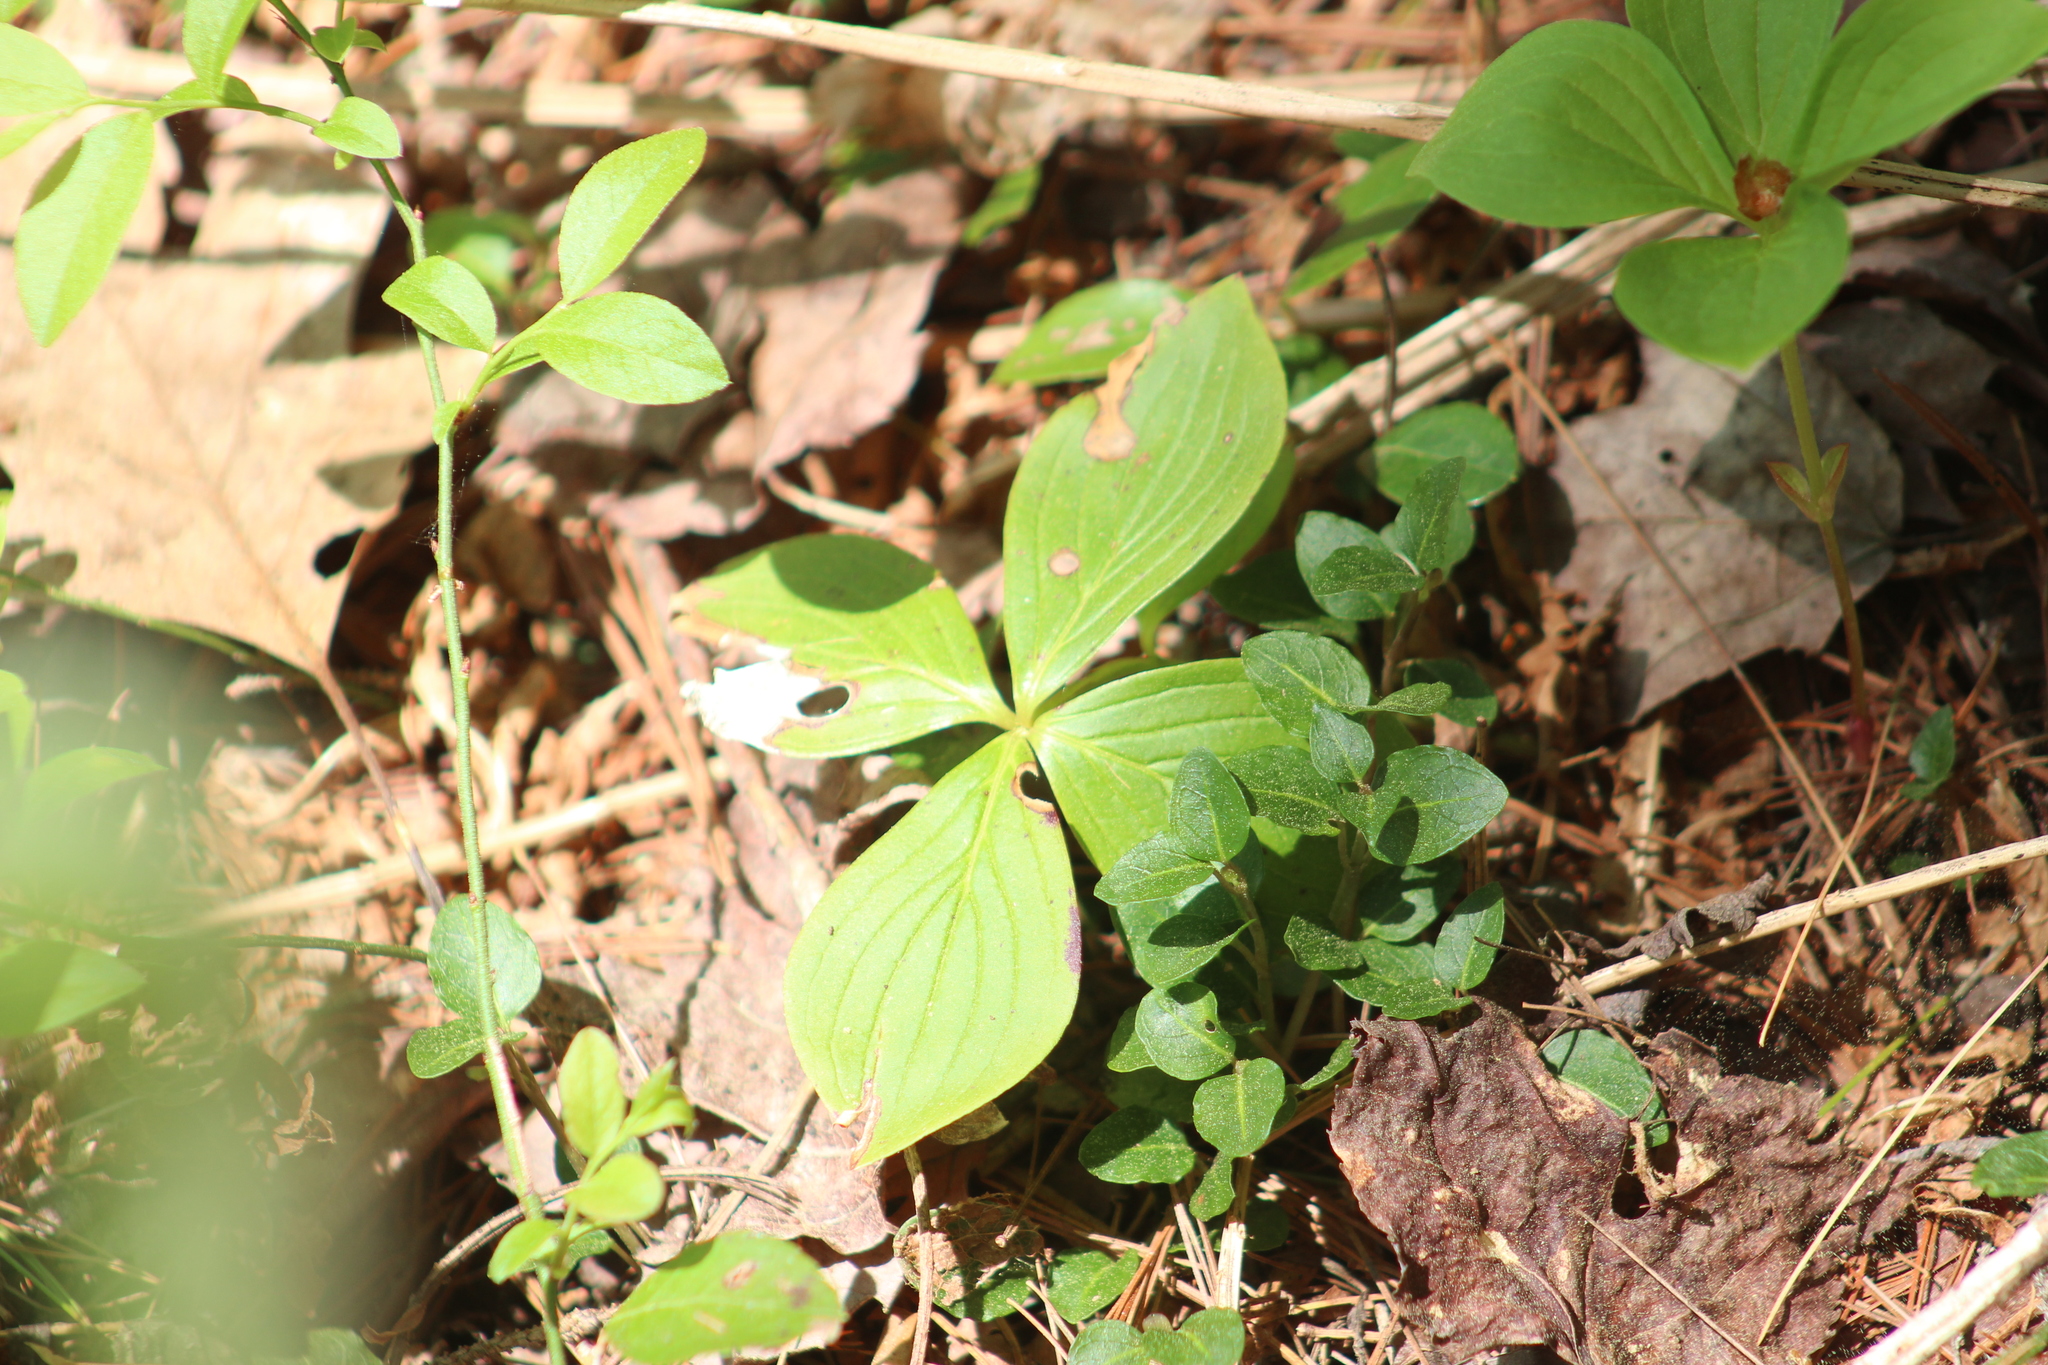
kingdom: Plantae
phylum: Tracheophyta
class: Magnoliopsida
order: Cornales
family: Cornaceae
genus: Cornus
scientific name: Cornus canadensis
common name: Creeping dogwood
